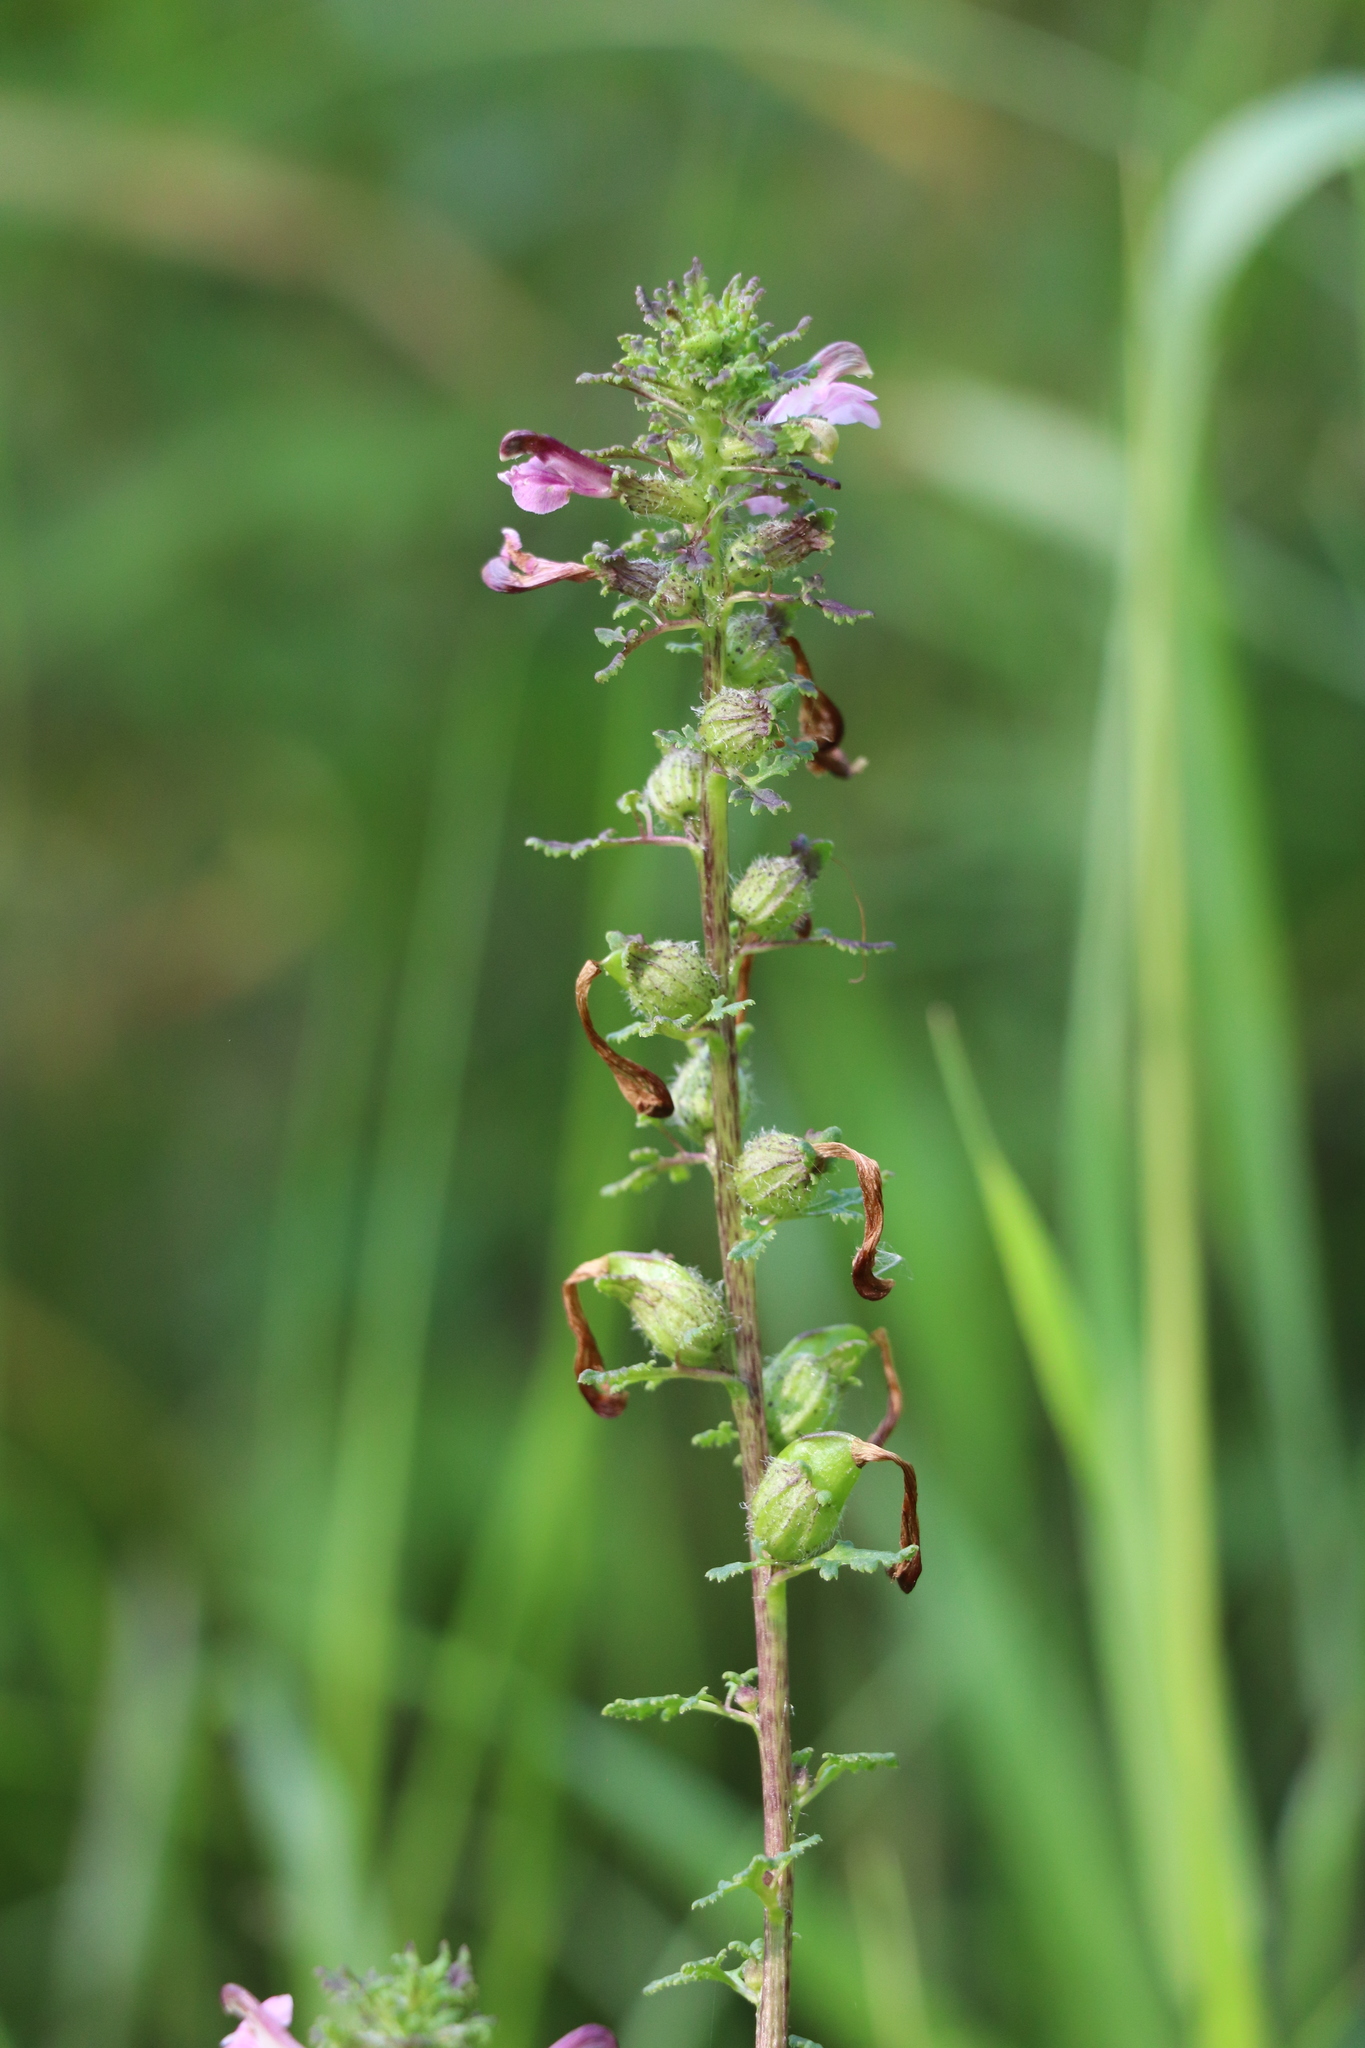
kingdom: Plantae
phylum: Tracheophyta
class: Magnoliopsida
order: Lamiales
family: Orobanchaceae
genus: Pedicularis
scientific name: Pedicularis palustris
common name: Marsh lousewort
